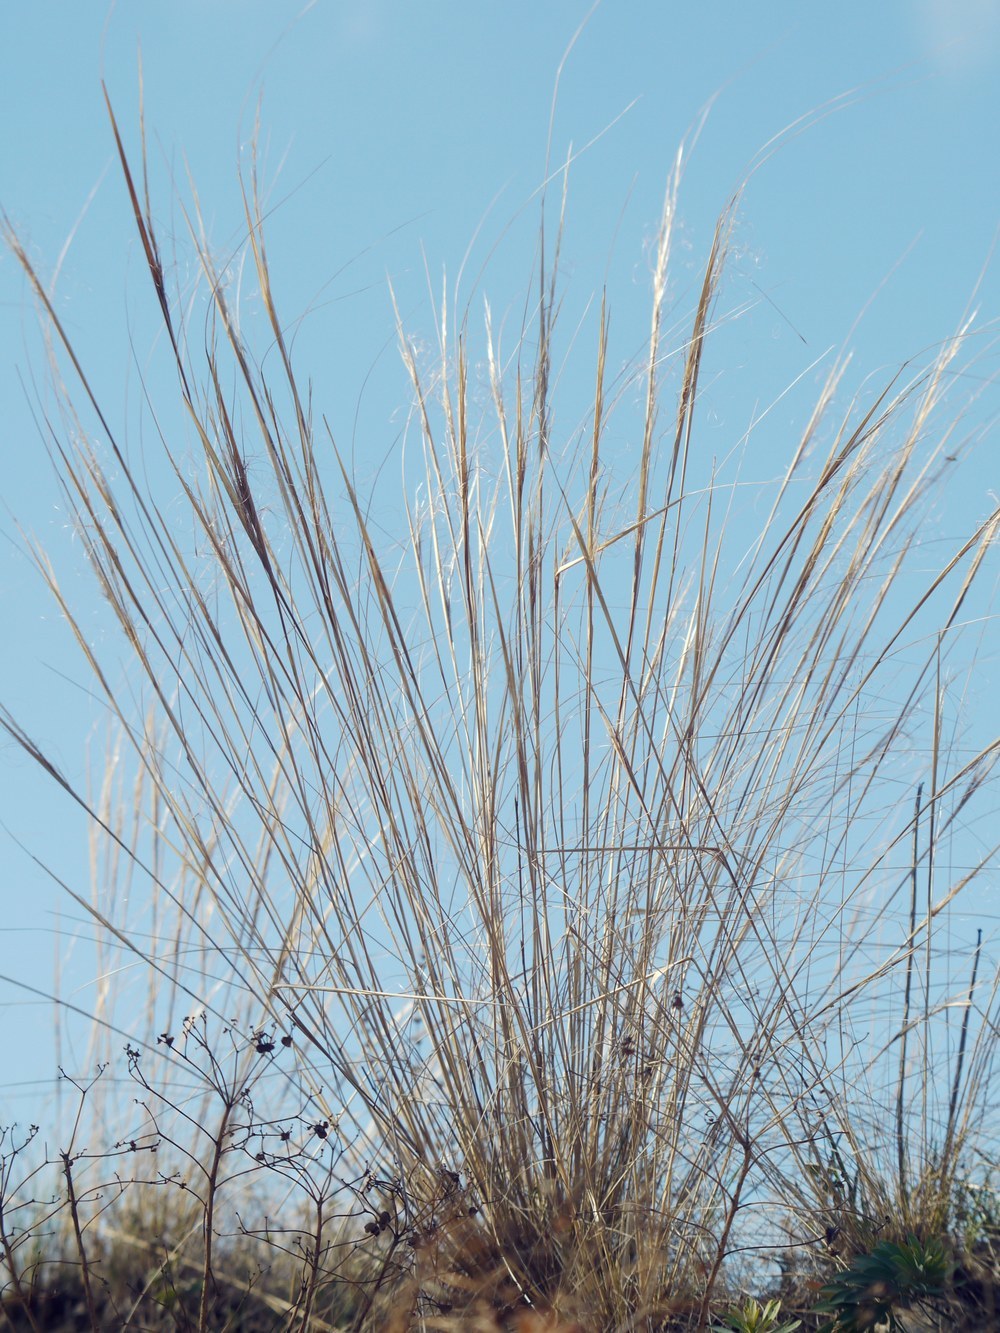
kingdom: Plantae
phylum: Tracheophyta
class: Liliopsida
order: Poales
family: Poaceae
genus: Stipa
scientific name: Stipa capillata
